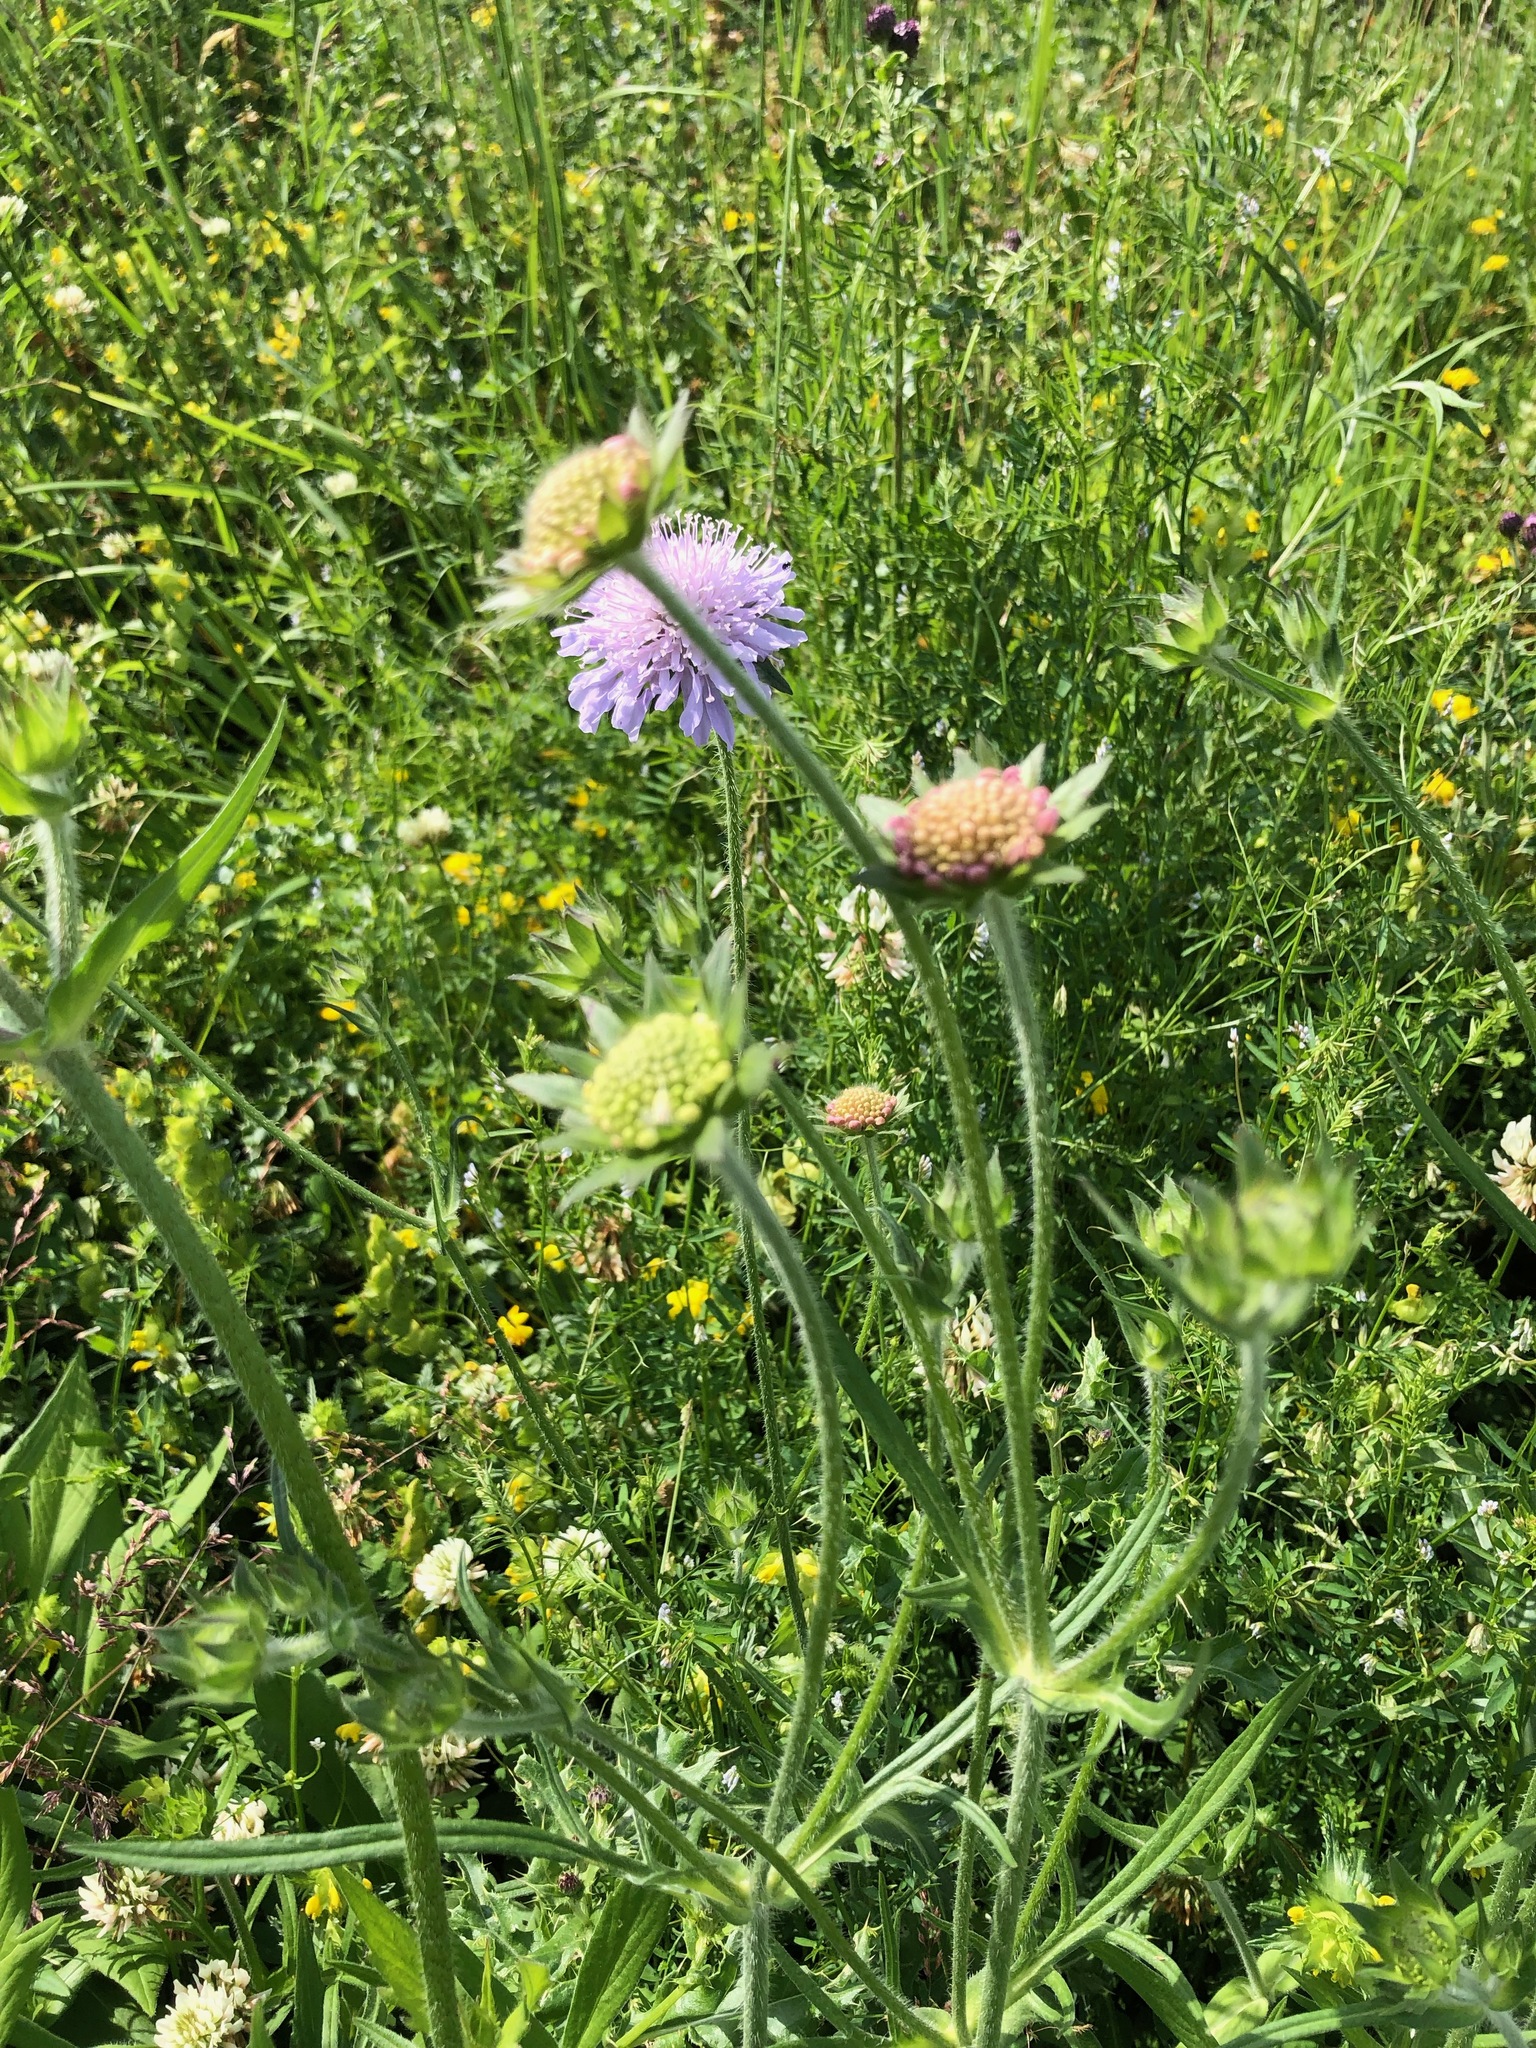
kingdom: Plantae
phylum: Tracheophyta
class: Magnoliopsida
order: Dipsacales
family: Caprifoliaceae
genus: Knautia
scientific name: Knautia arvensis
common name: Field scabiosa
